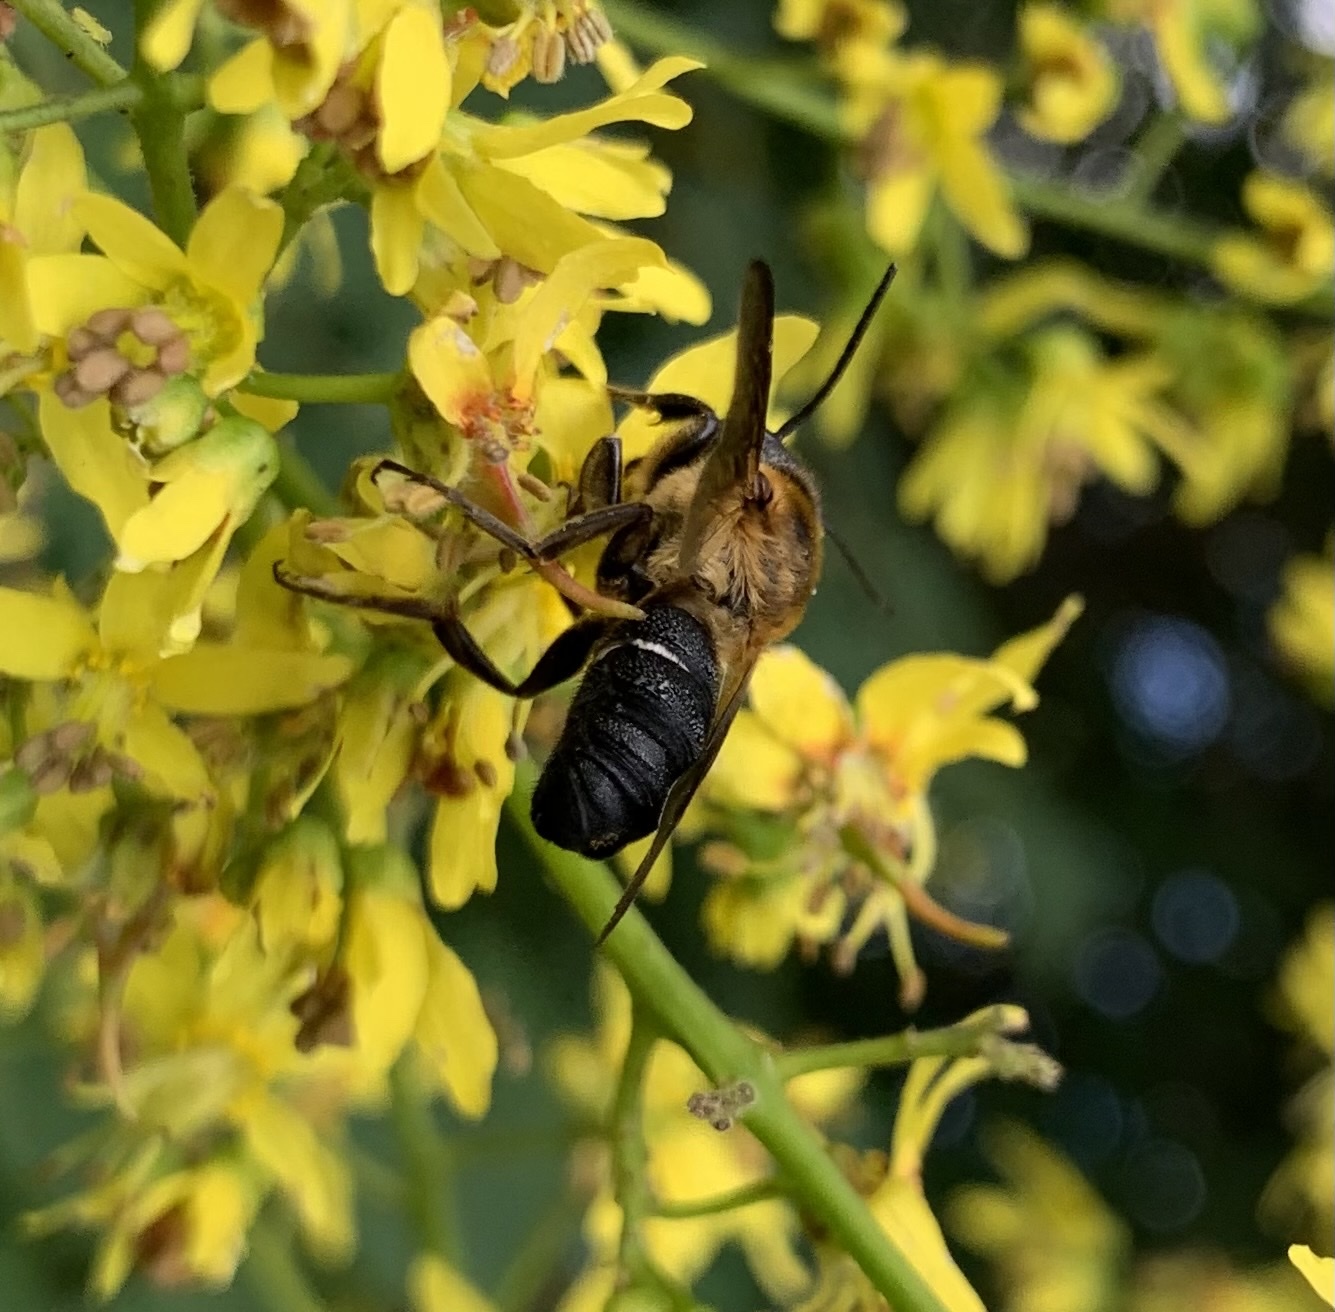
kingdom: Animalia
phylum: Arthropoda
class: Insecta
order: Hymenoptera
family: Megachilidae
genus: Megachile
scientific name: Megachile sculpturalis
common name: Sculptured resin bee
